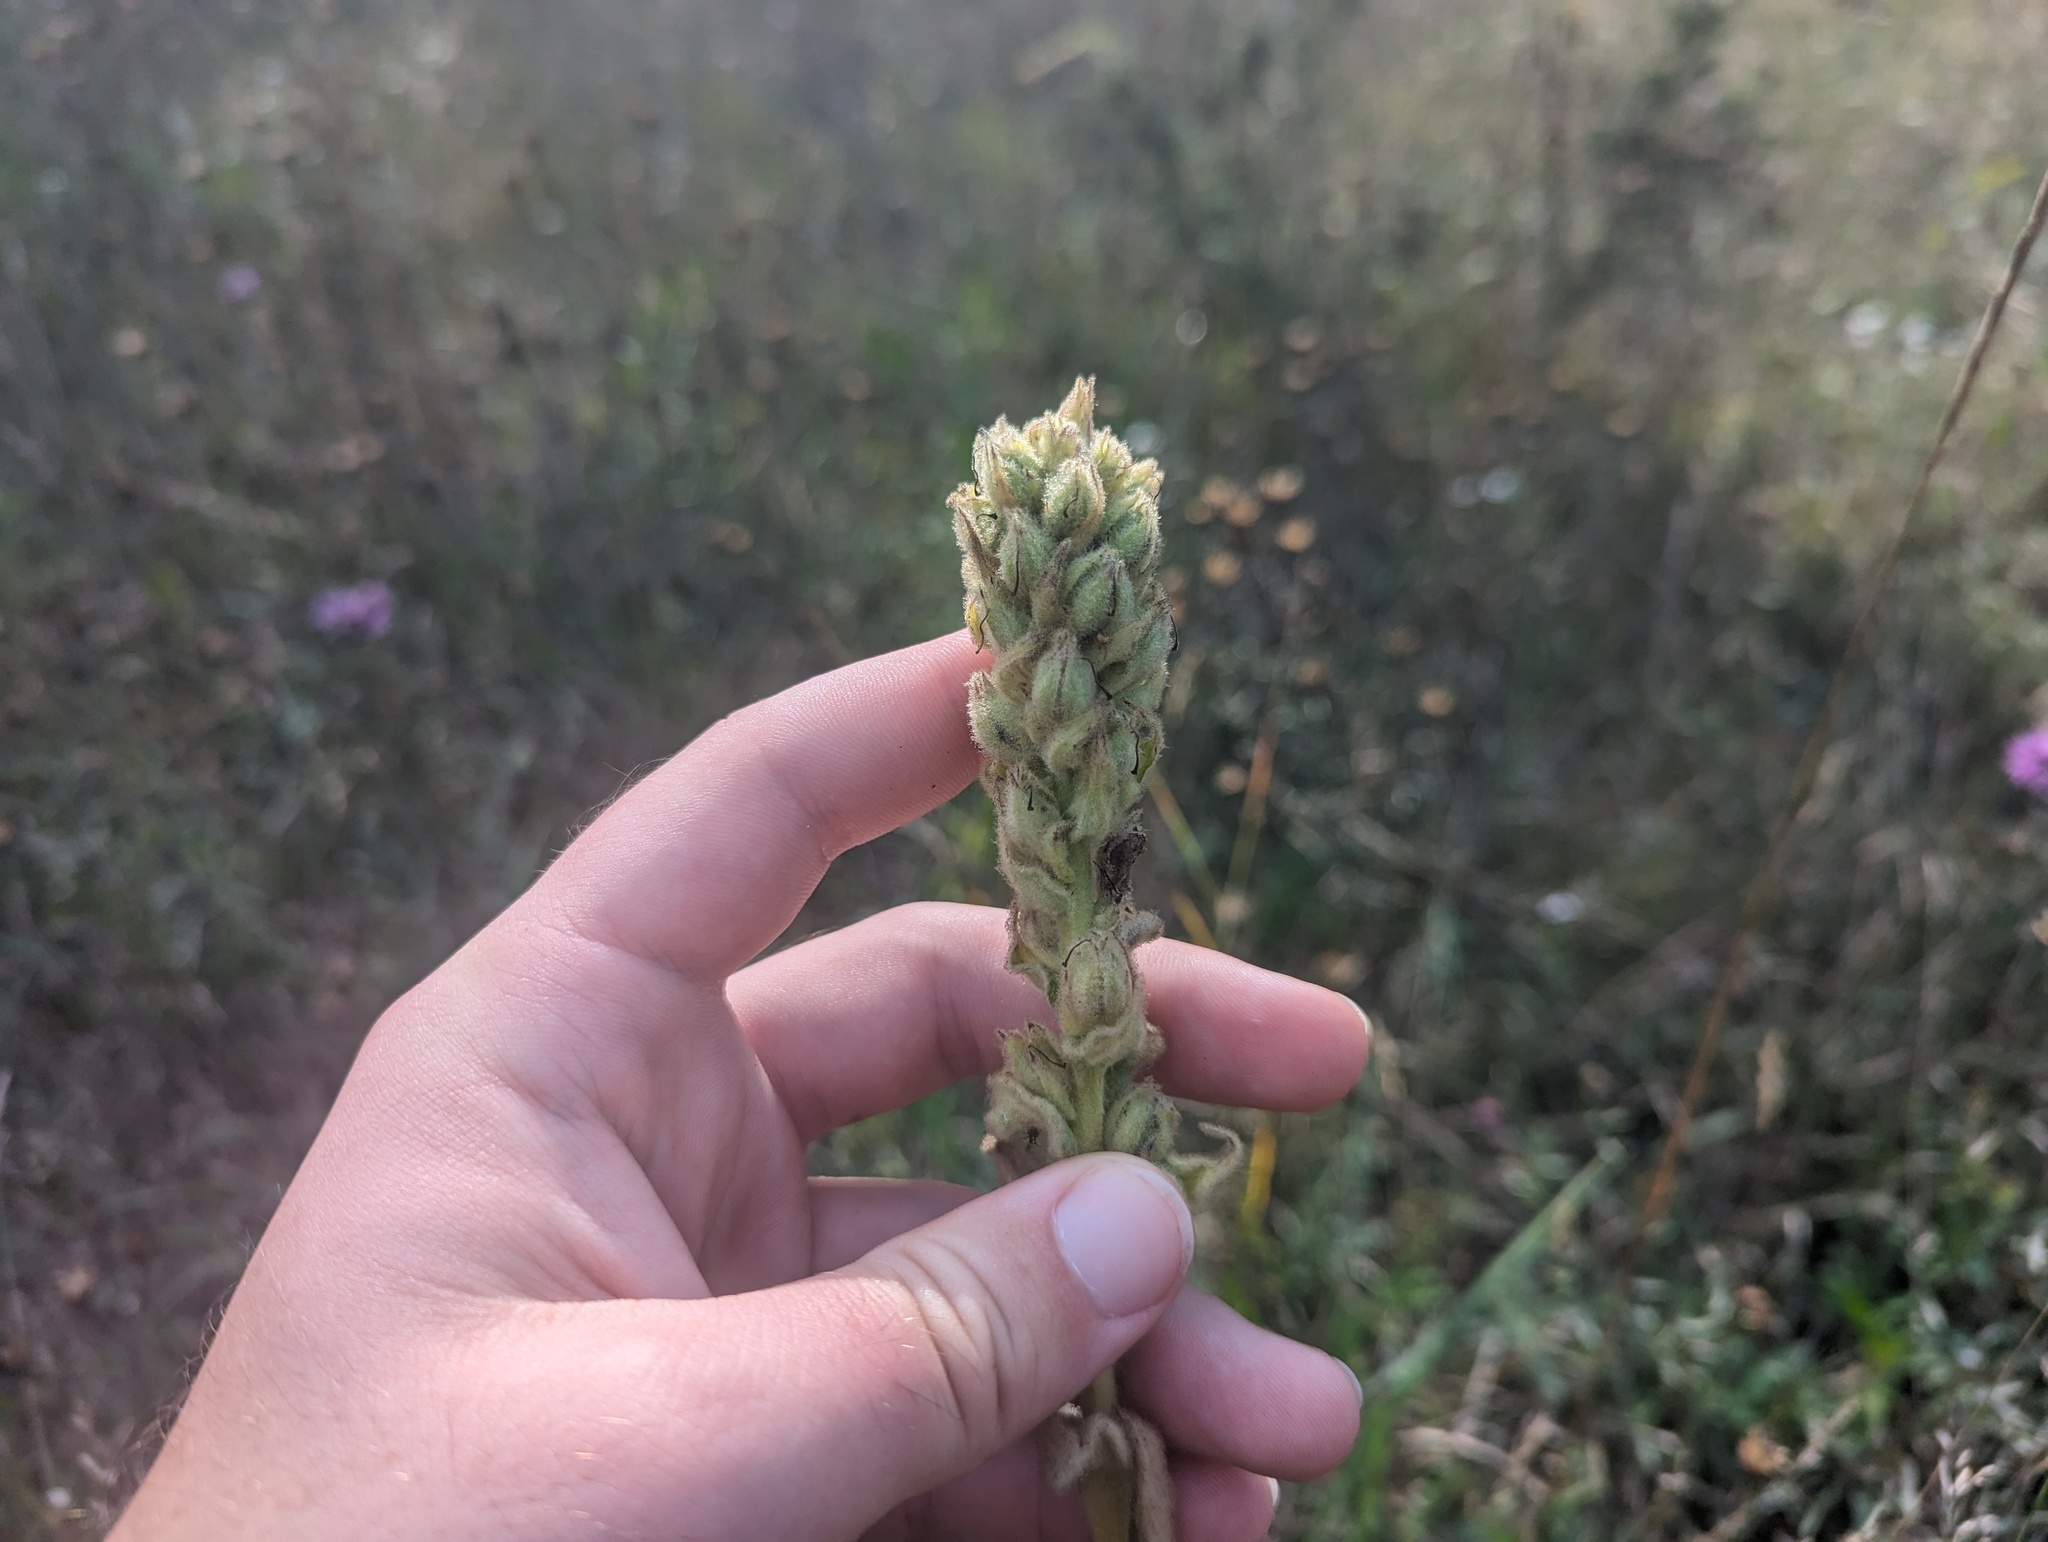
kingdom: Plantae
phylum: Tracheophyta
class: Magnoliopsida
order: Lamiales
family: Scrophulariaceae
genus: Verbascum
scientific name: Verbascum thapsus
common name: Common mullein
